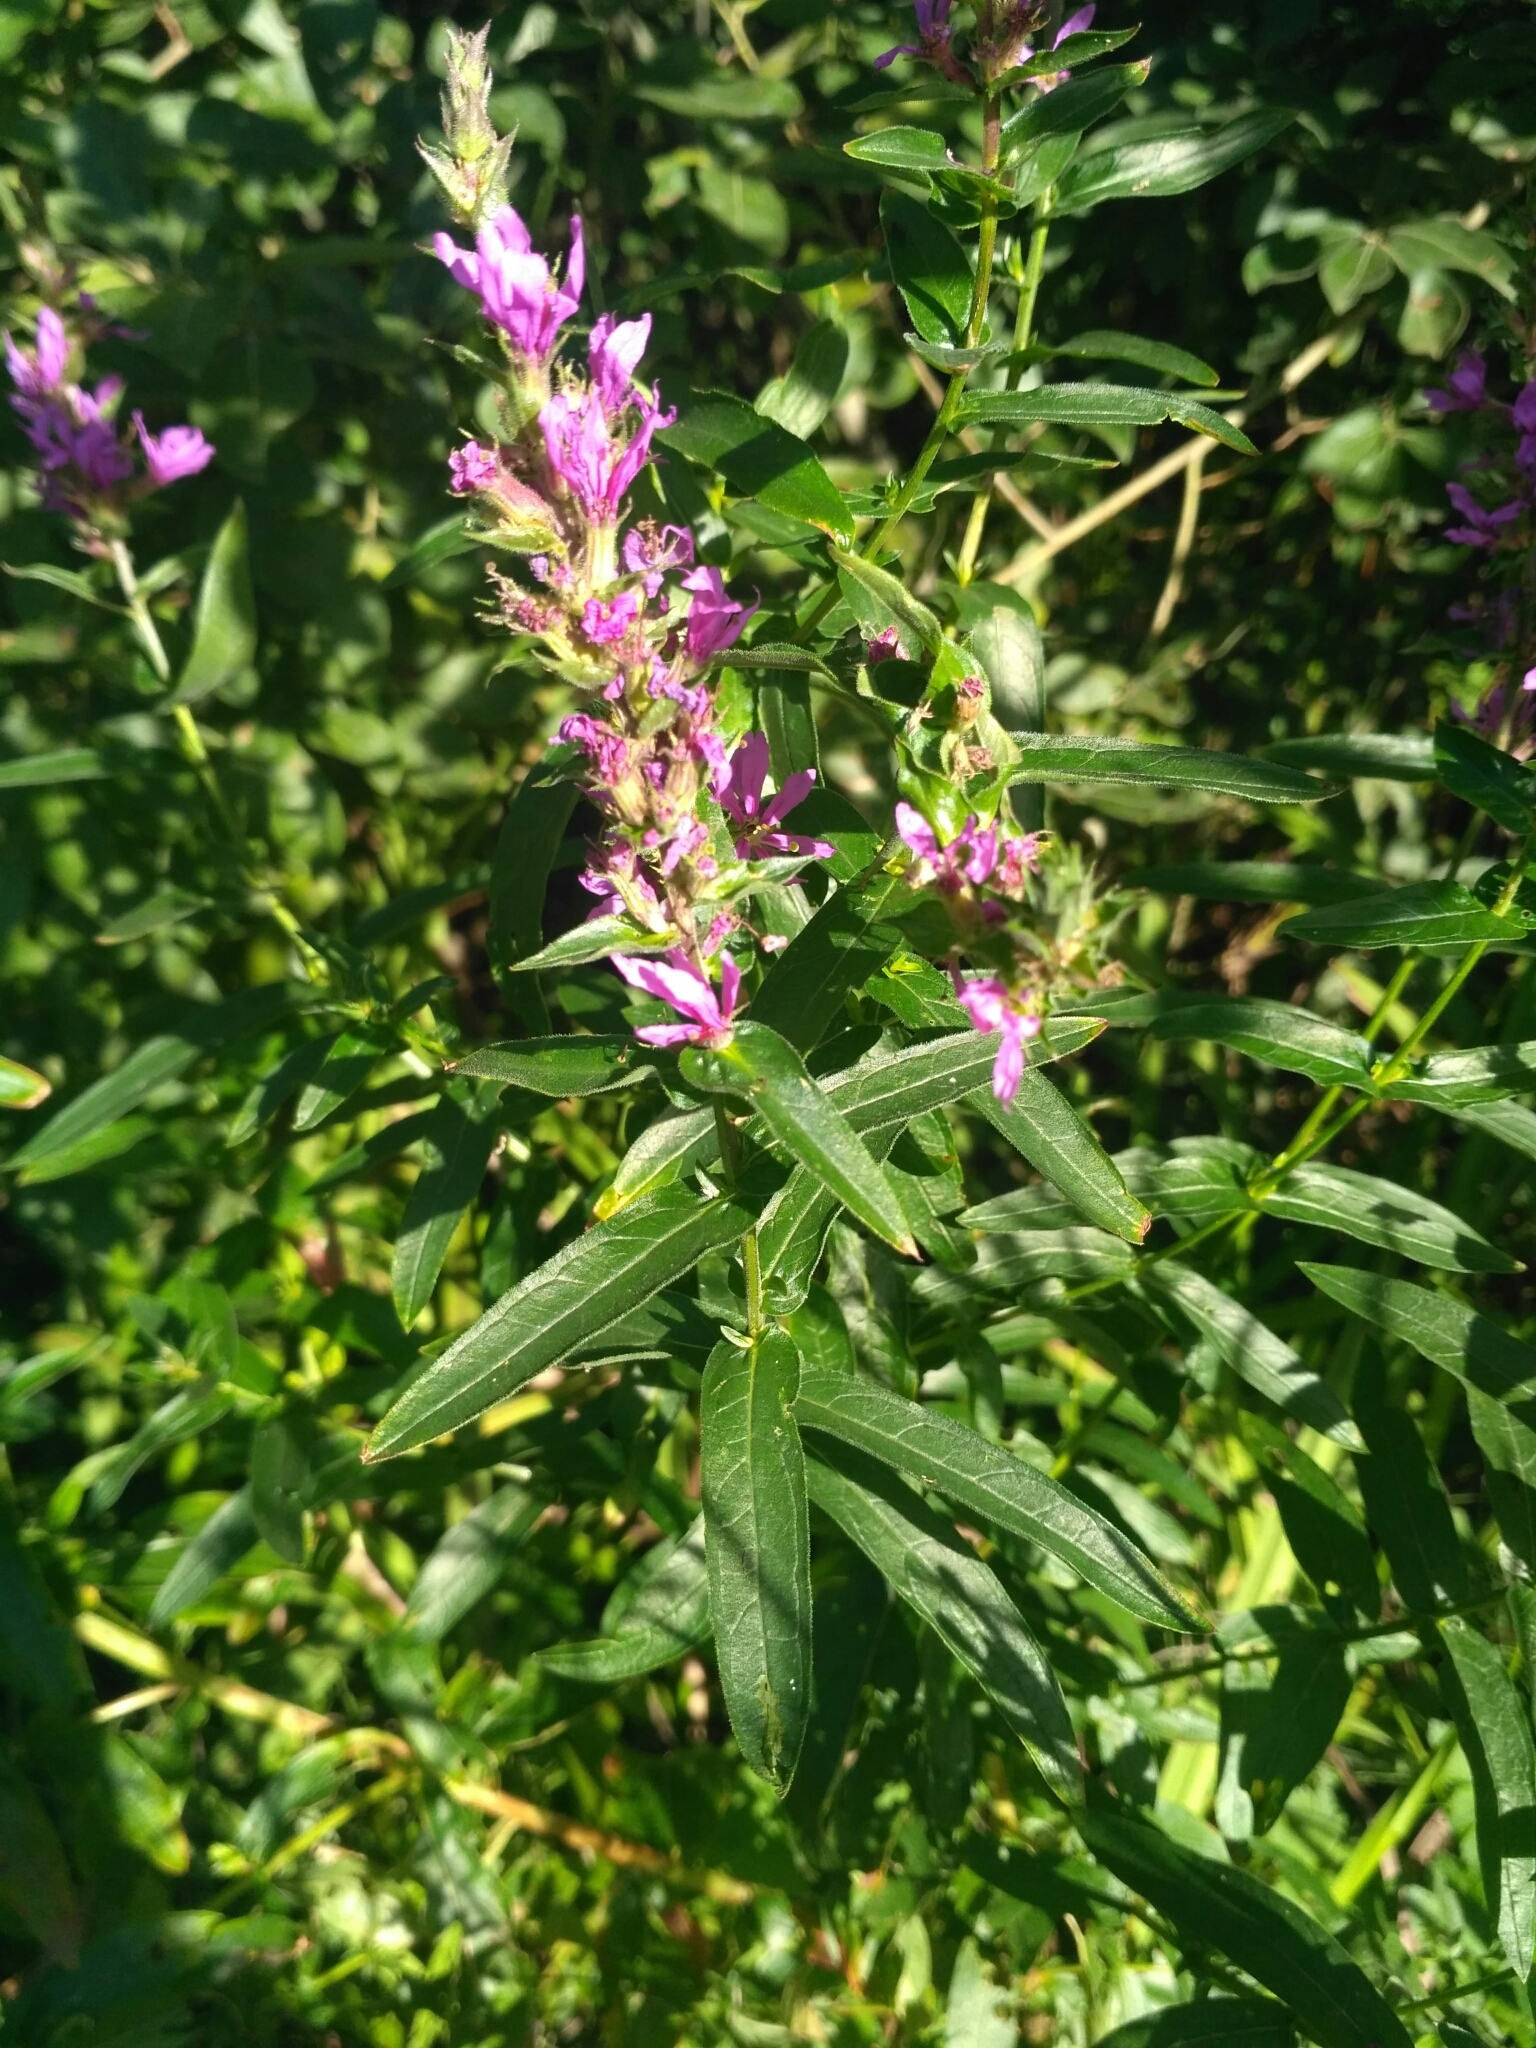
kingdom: Plantae
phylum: Tracheophyta
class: Magnoliopsida
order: Myrtales
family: Lythraceae
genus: Lythrum
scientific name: Lythrum salicaria
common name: Purple loosestrife
